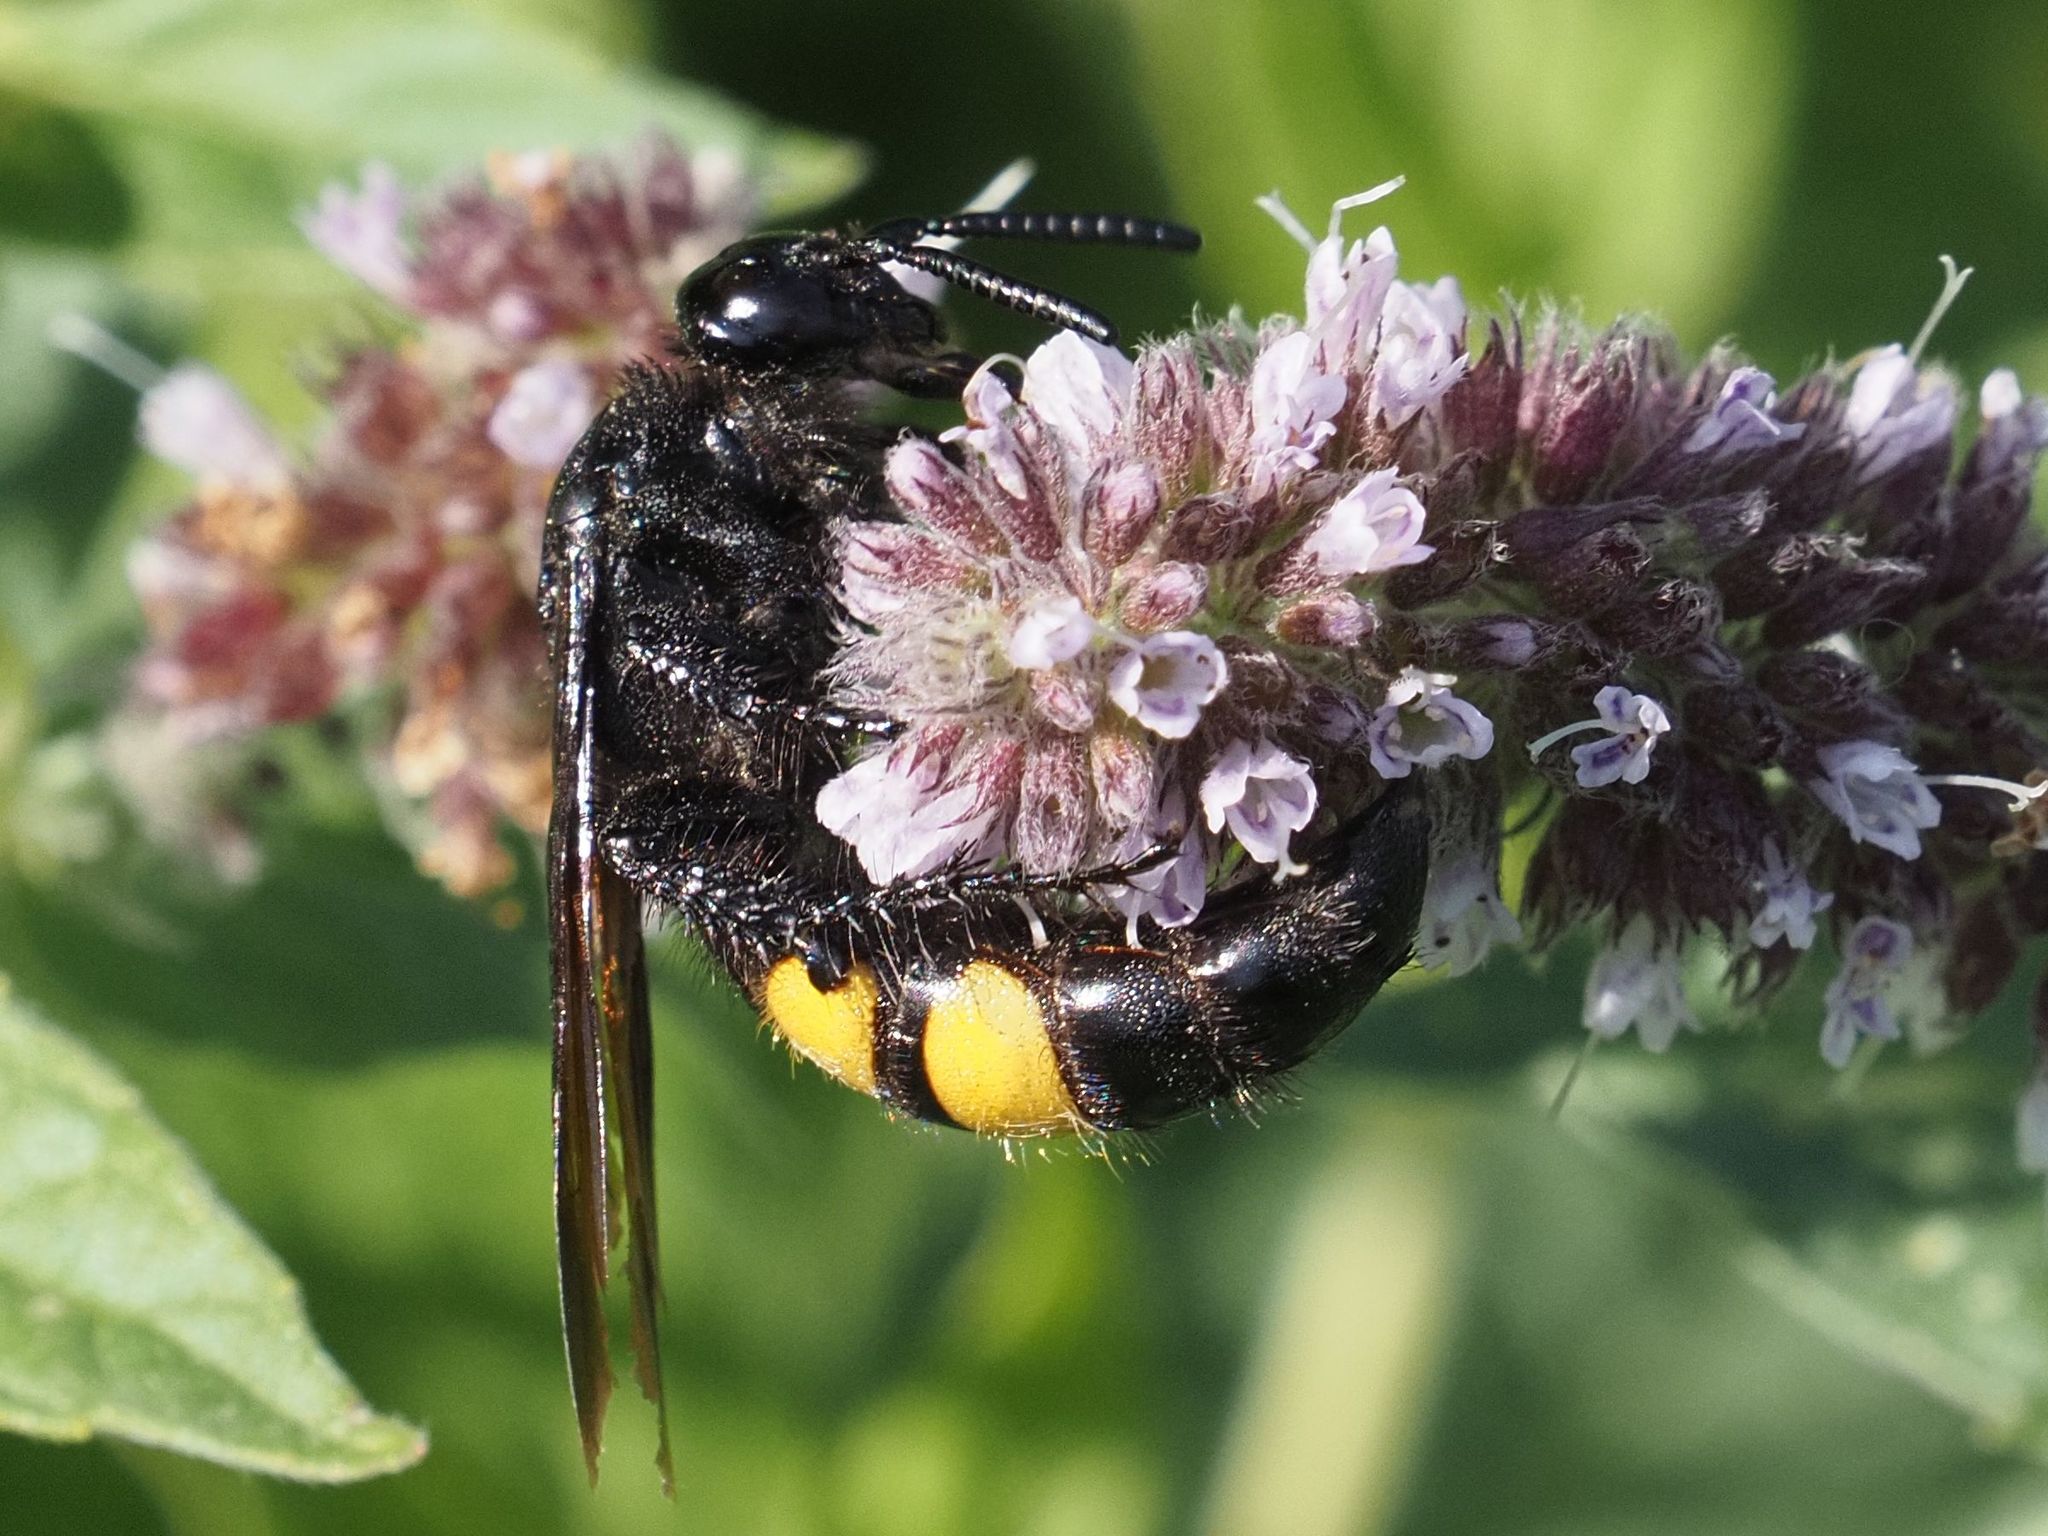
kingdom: Animalia
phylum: Arthropoda
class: Insecta
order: Hymenoptera
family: Scoliidae
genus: Scolia
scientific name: Scolia hirta
